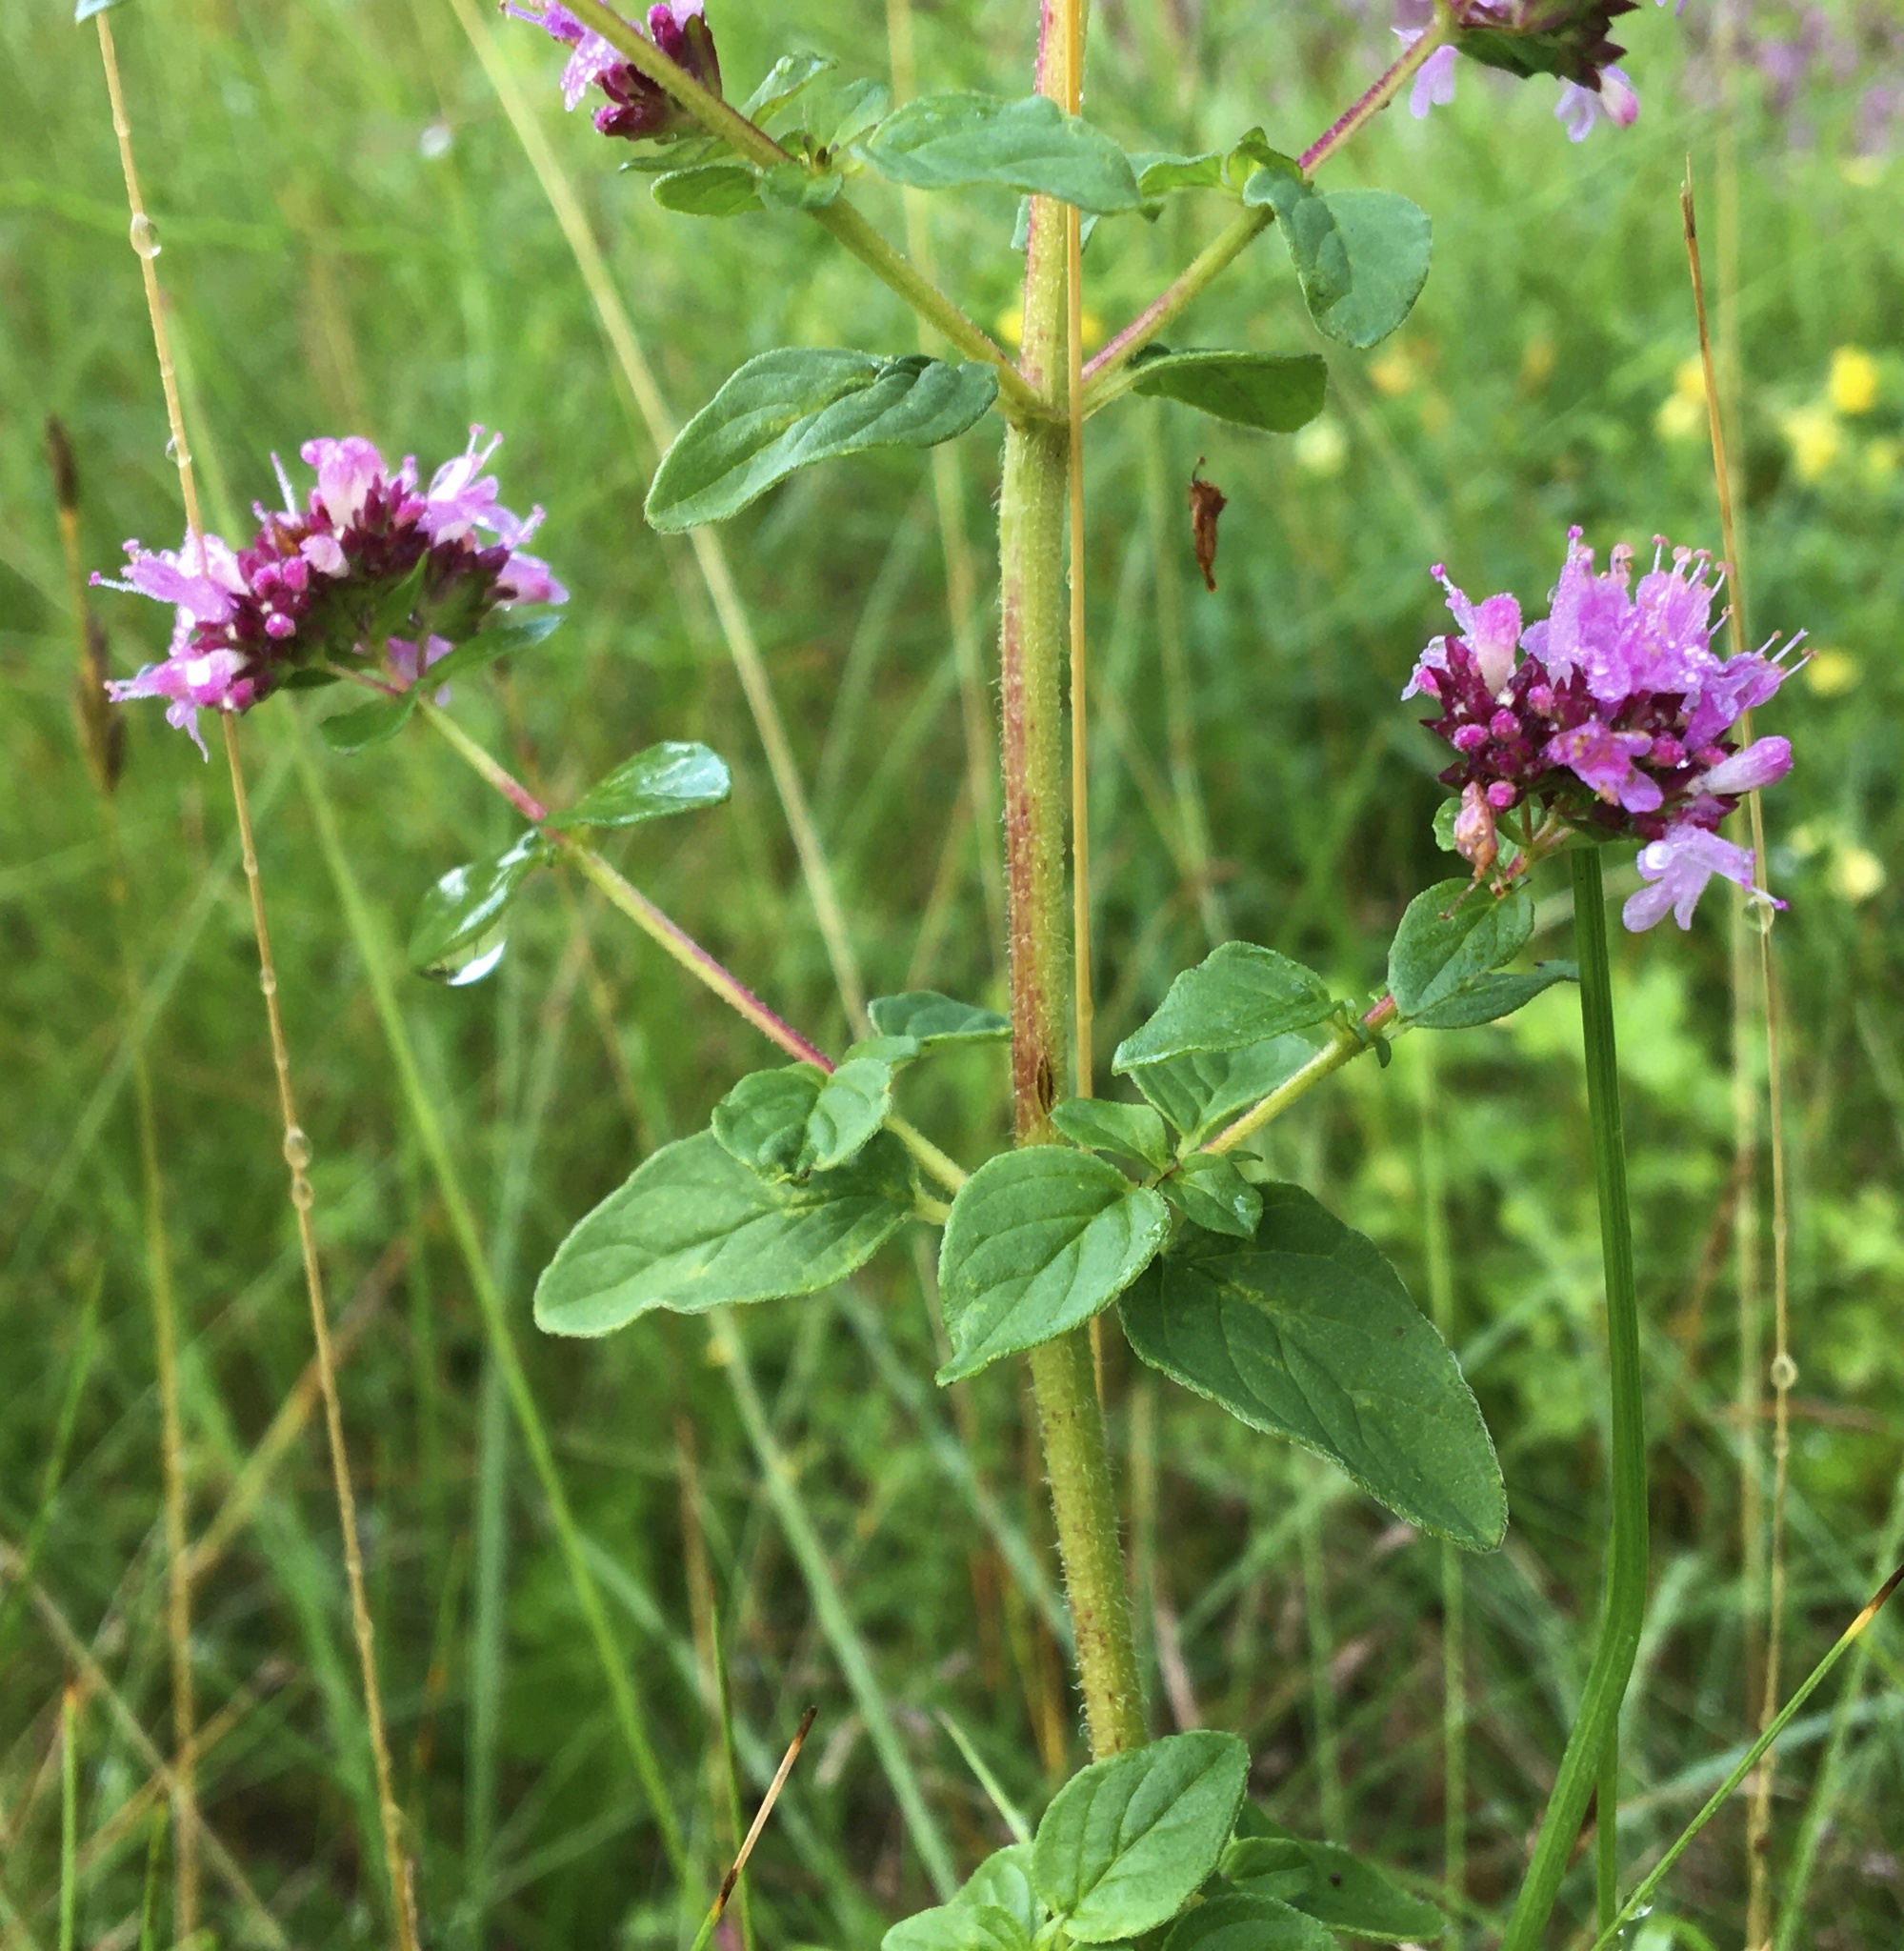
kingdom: Plantae
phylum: Tracheophyta
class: Magnoliopsida
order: Lamiales
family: Lamiaceae
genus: Origanum
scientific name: Origanum vulgare
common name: Wild marjoram
